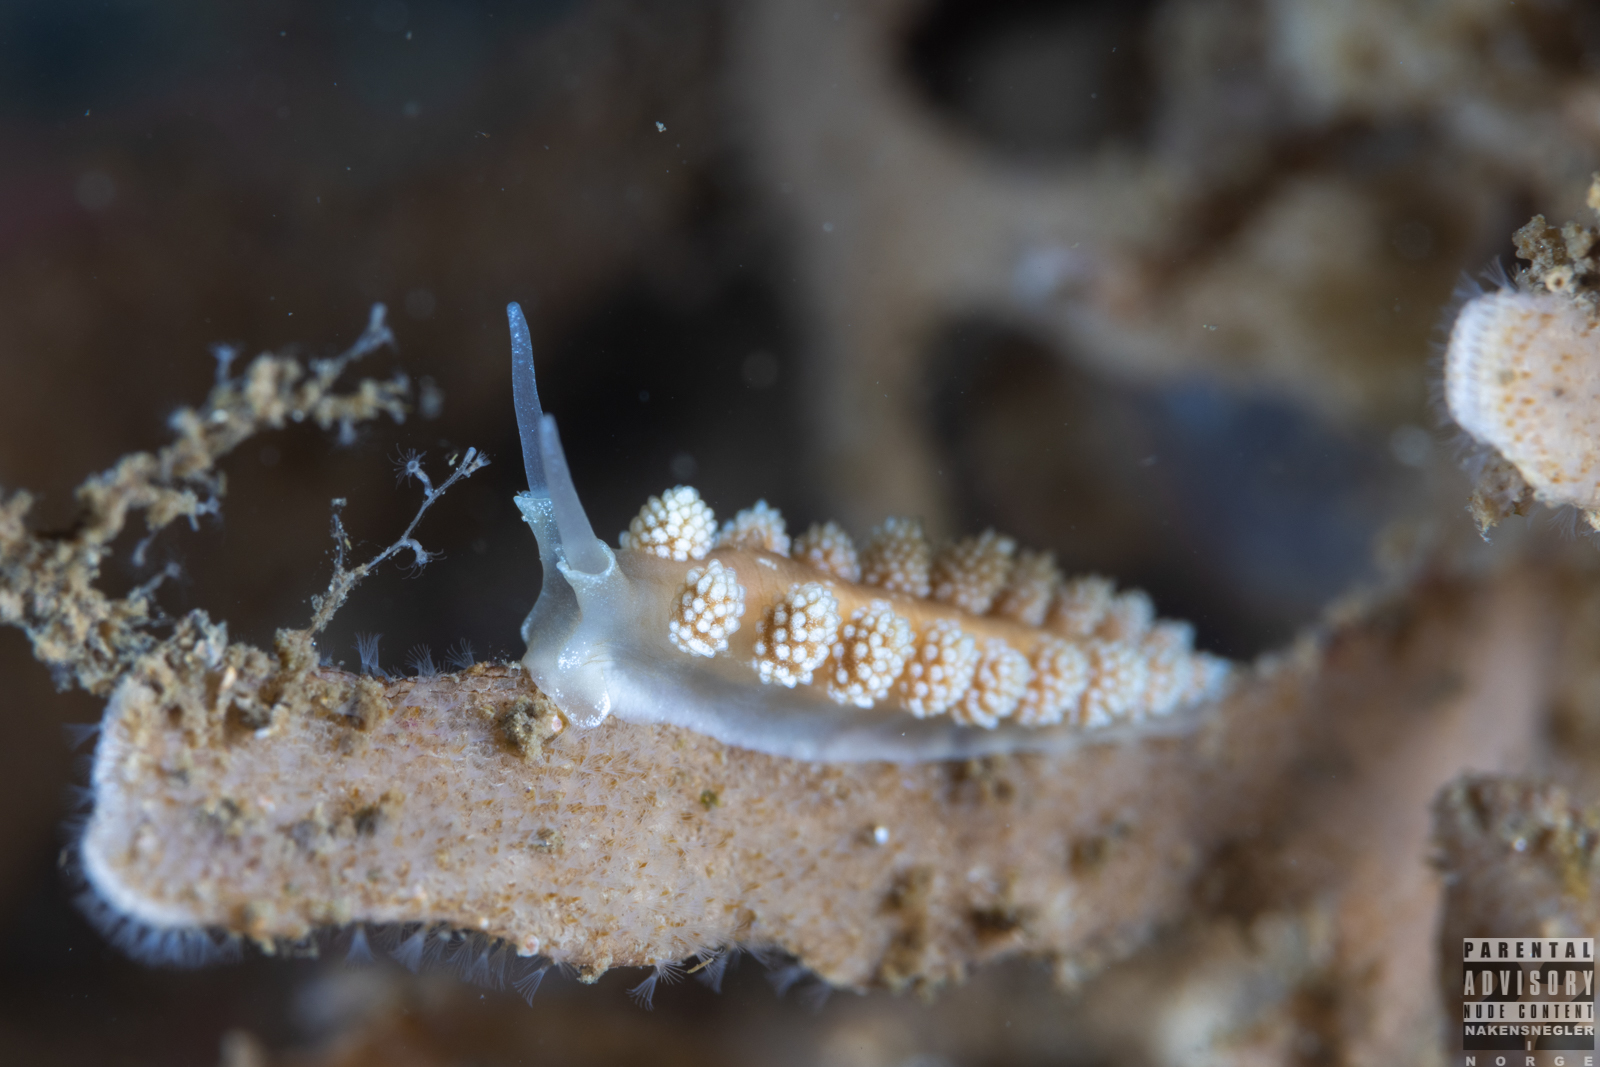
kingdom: Animalia
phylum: Mollusca
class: Gastropoda
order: Nudibranchia
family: Dotidae
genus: Doto
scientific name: Doto fragilis
